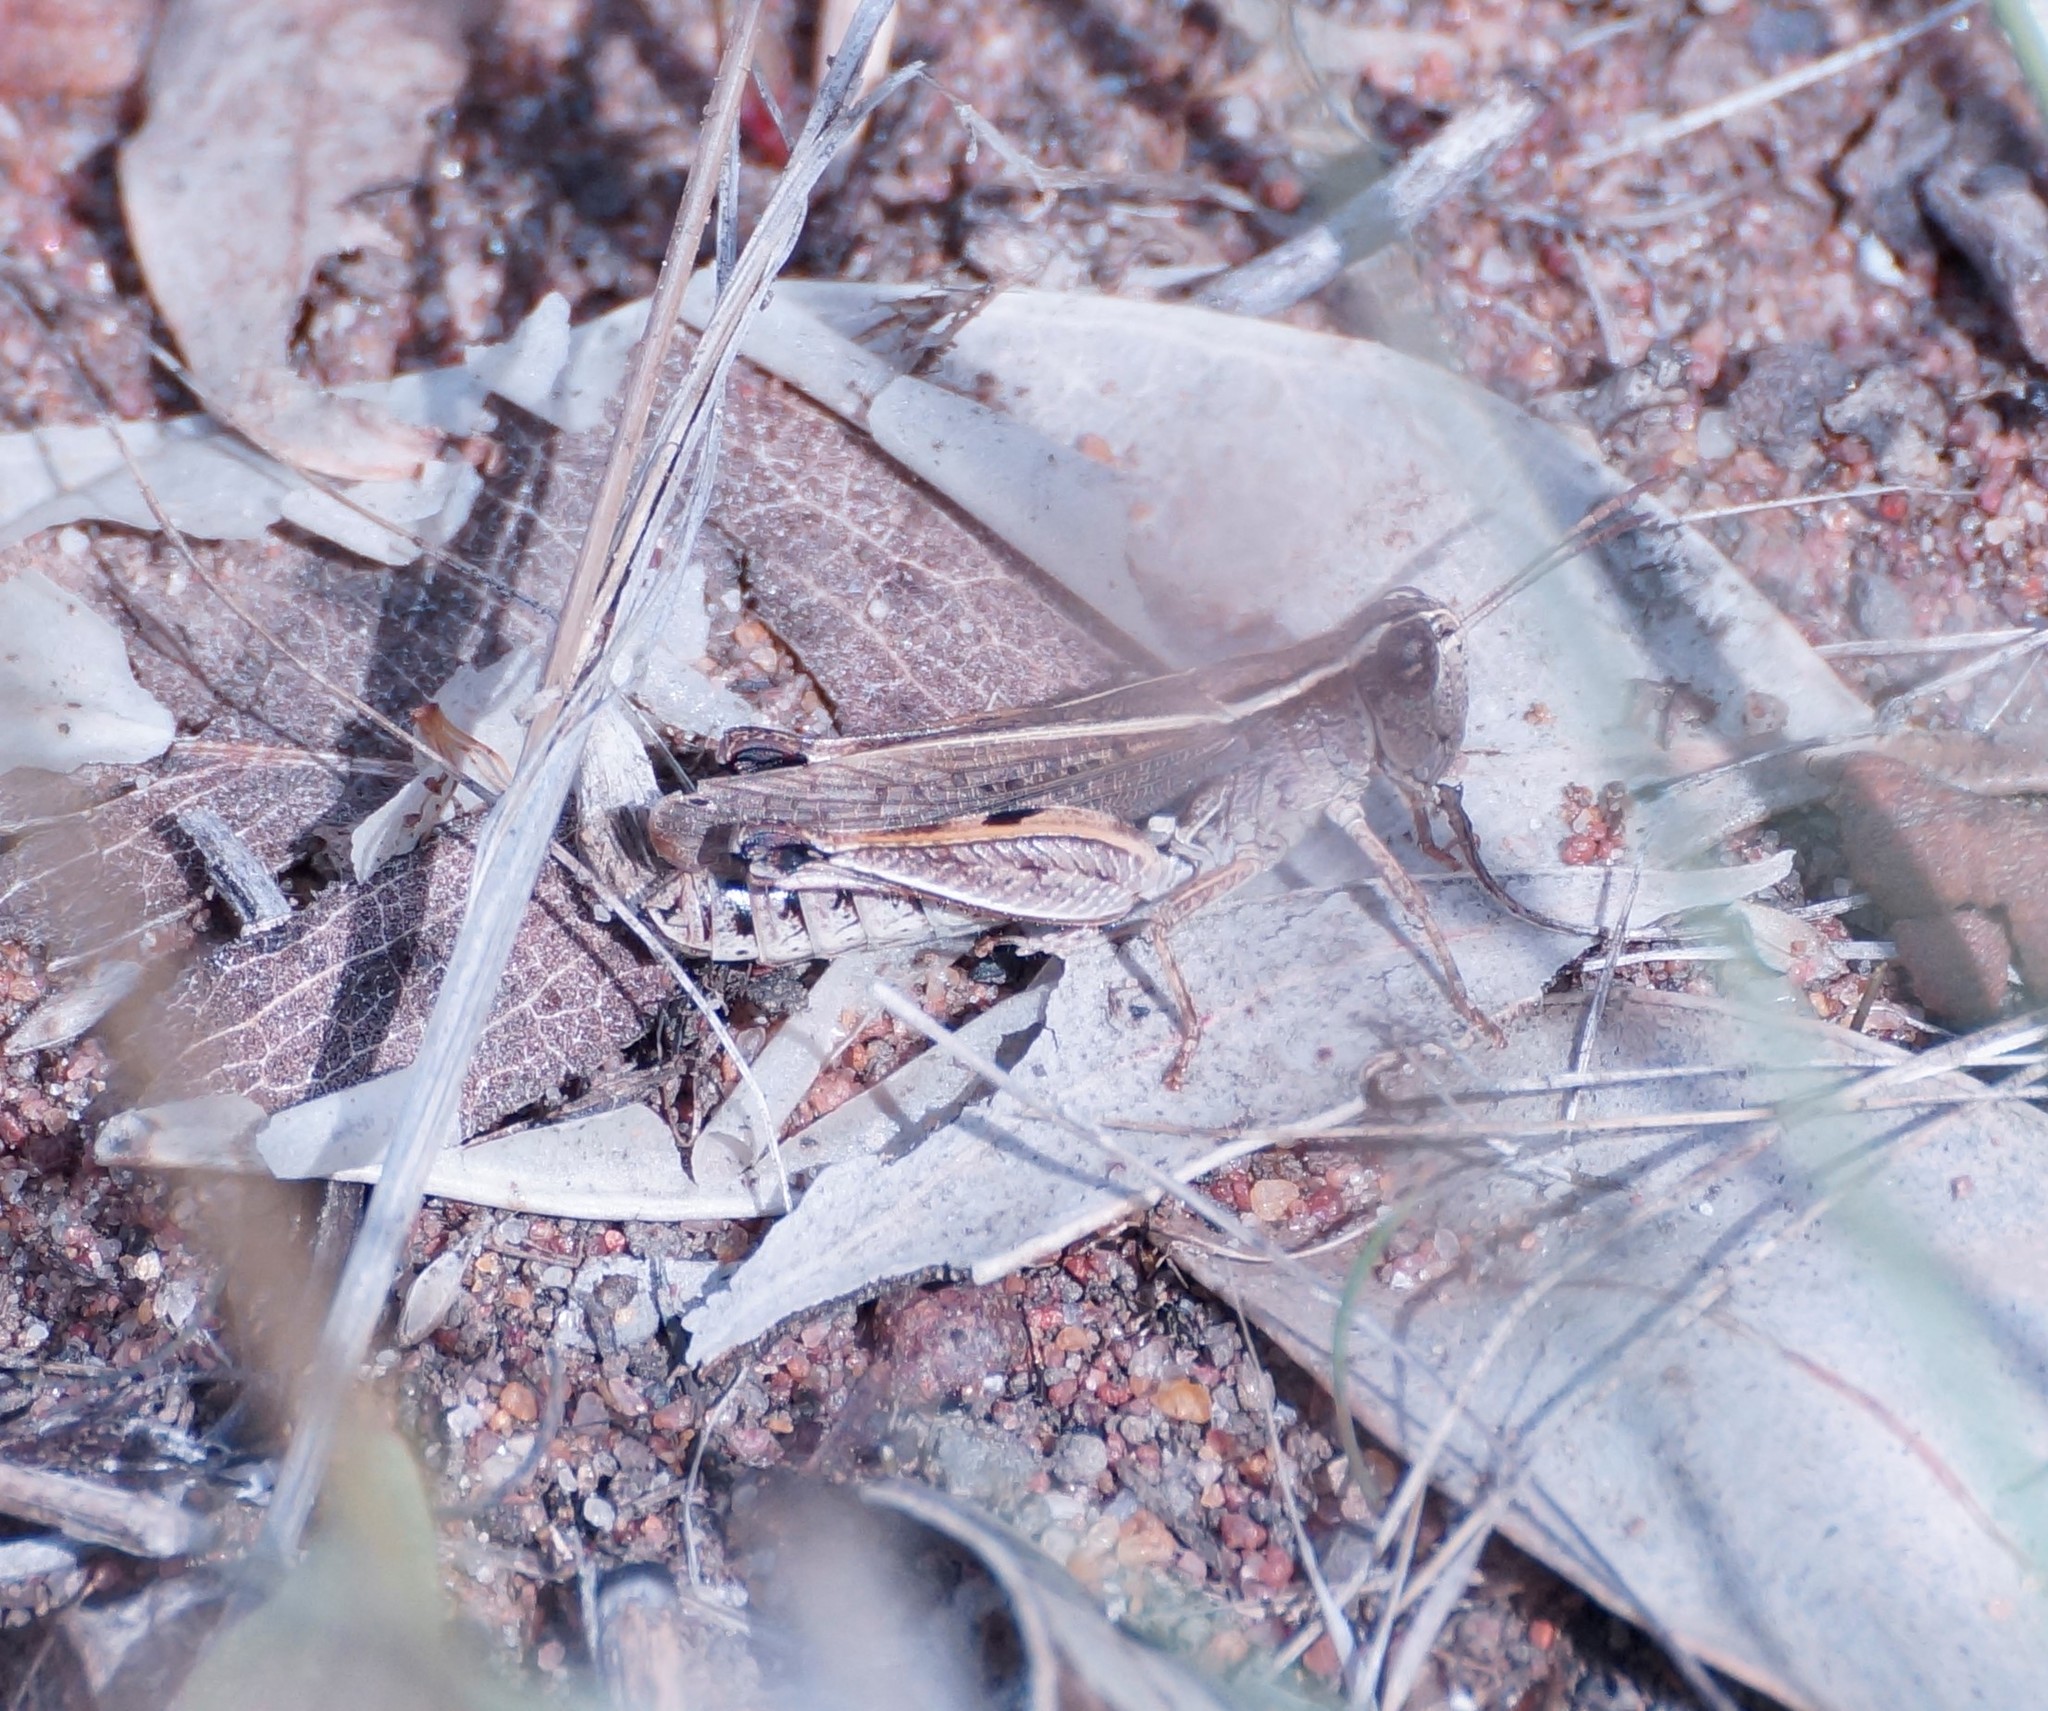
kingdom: Animalia
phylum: Arthropoda
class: Insecta
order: Orthoptera
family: Acrididae
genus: Phaulacridium
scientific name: Phaulacridium vittatum
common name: Wingless grasshopper
